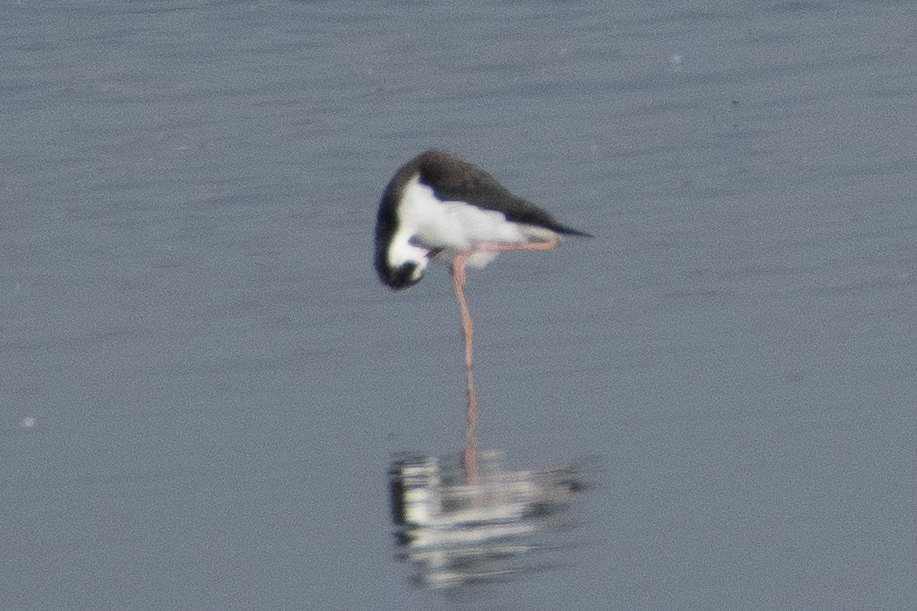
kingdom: Animalia
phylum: Chordata
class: Aves
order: Charadriiformes
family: Recurvirostridae
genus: Himantopus
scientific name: Himantopus mexicanus
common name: Black-necked stilt
